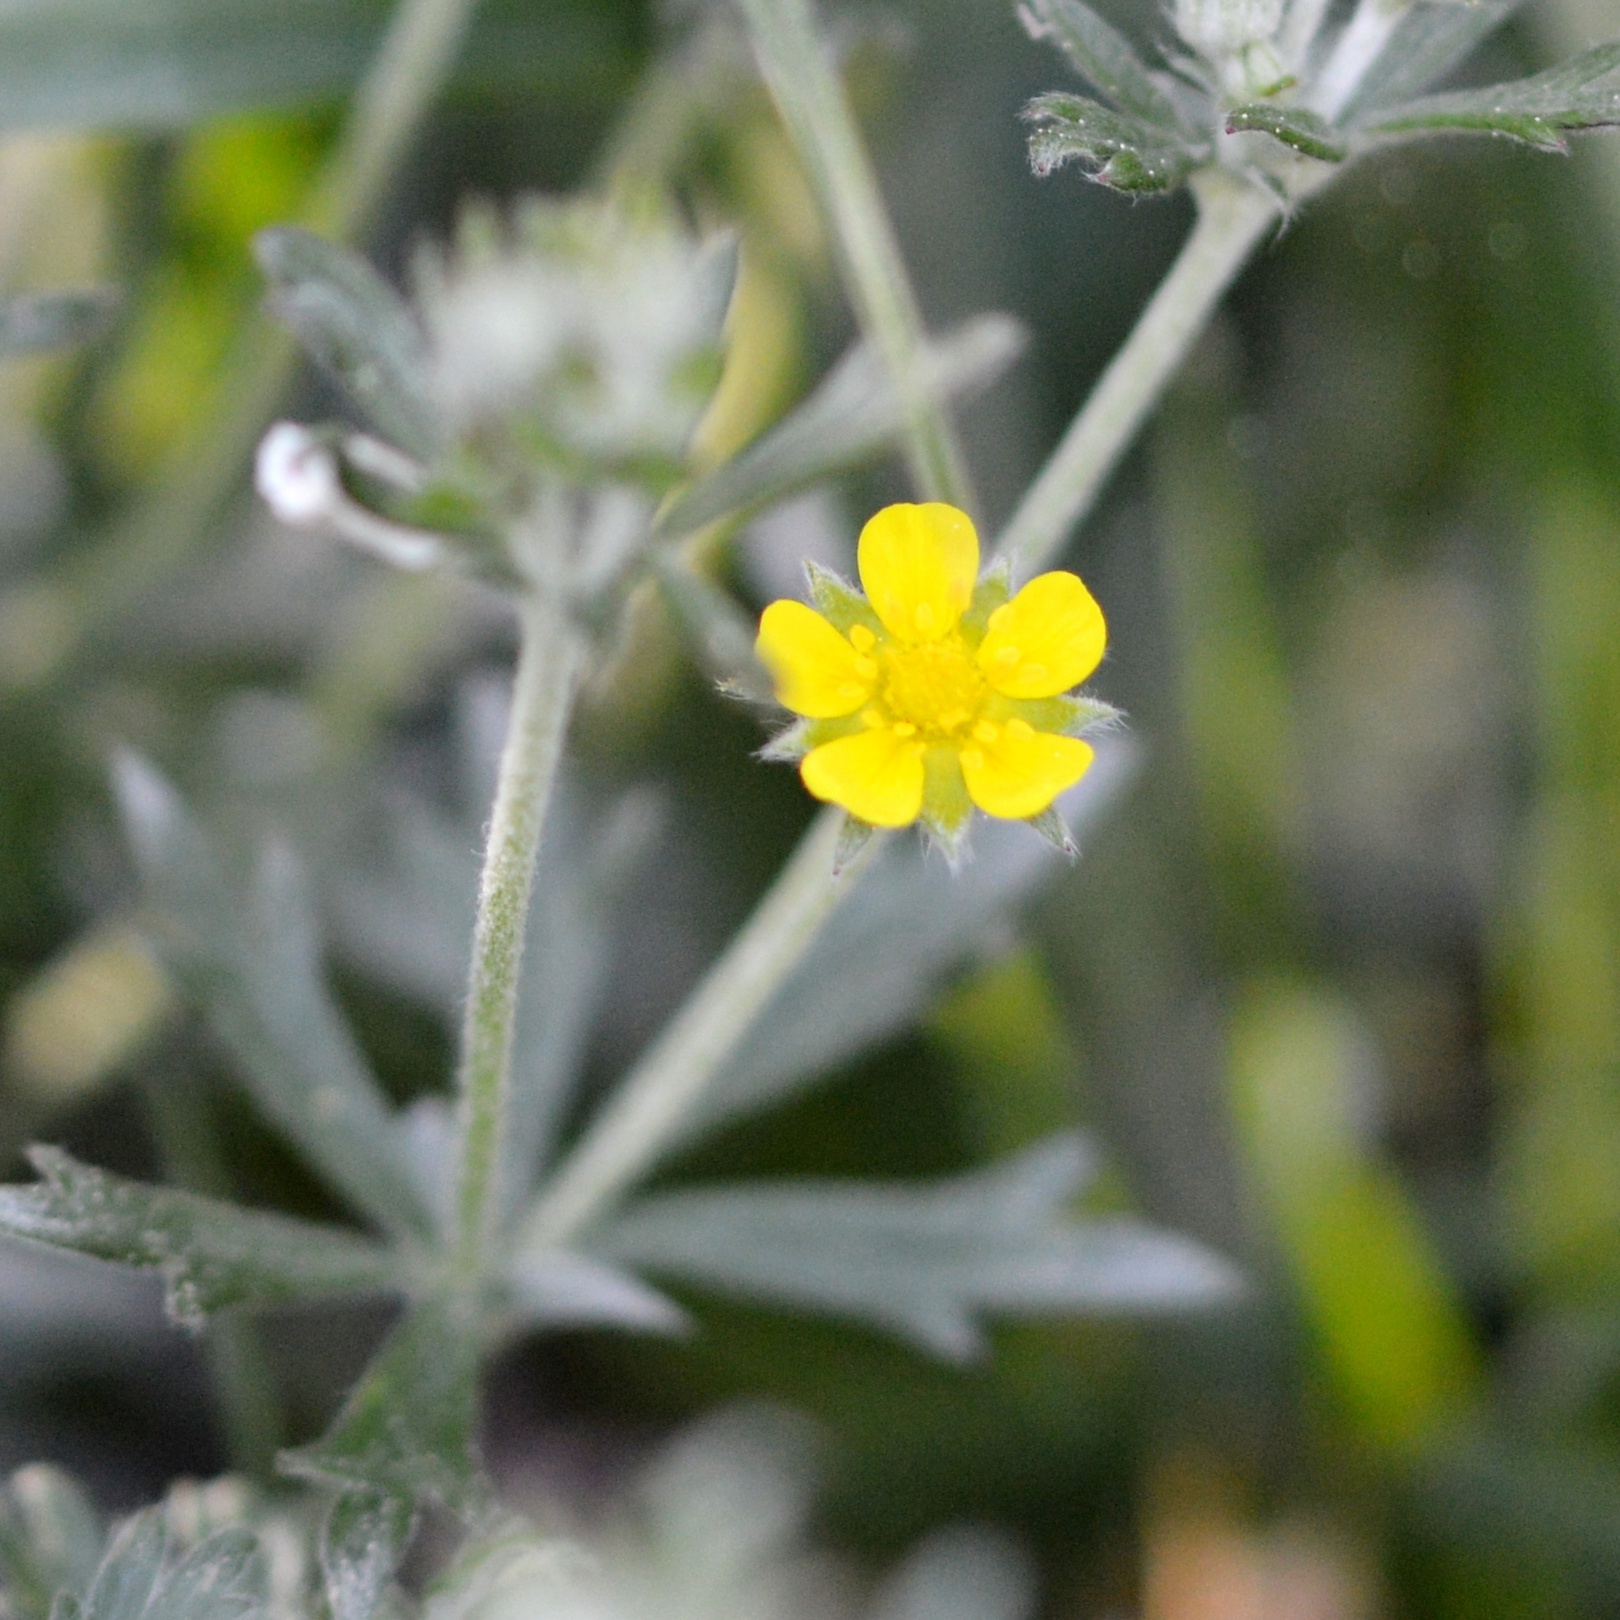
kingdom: Plantae
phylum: Tracheophyta
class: Magnoliopsida
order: Rosales
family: Rosaceae
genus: Potentilla
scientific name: Potentilla argentea
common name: Hoary cinquefoil
